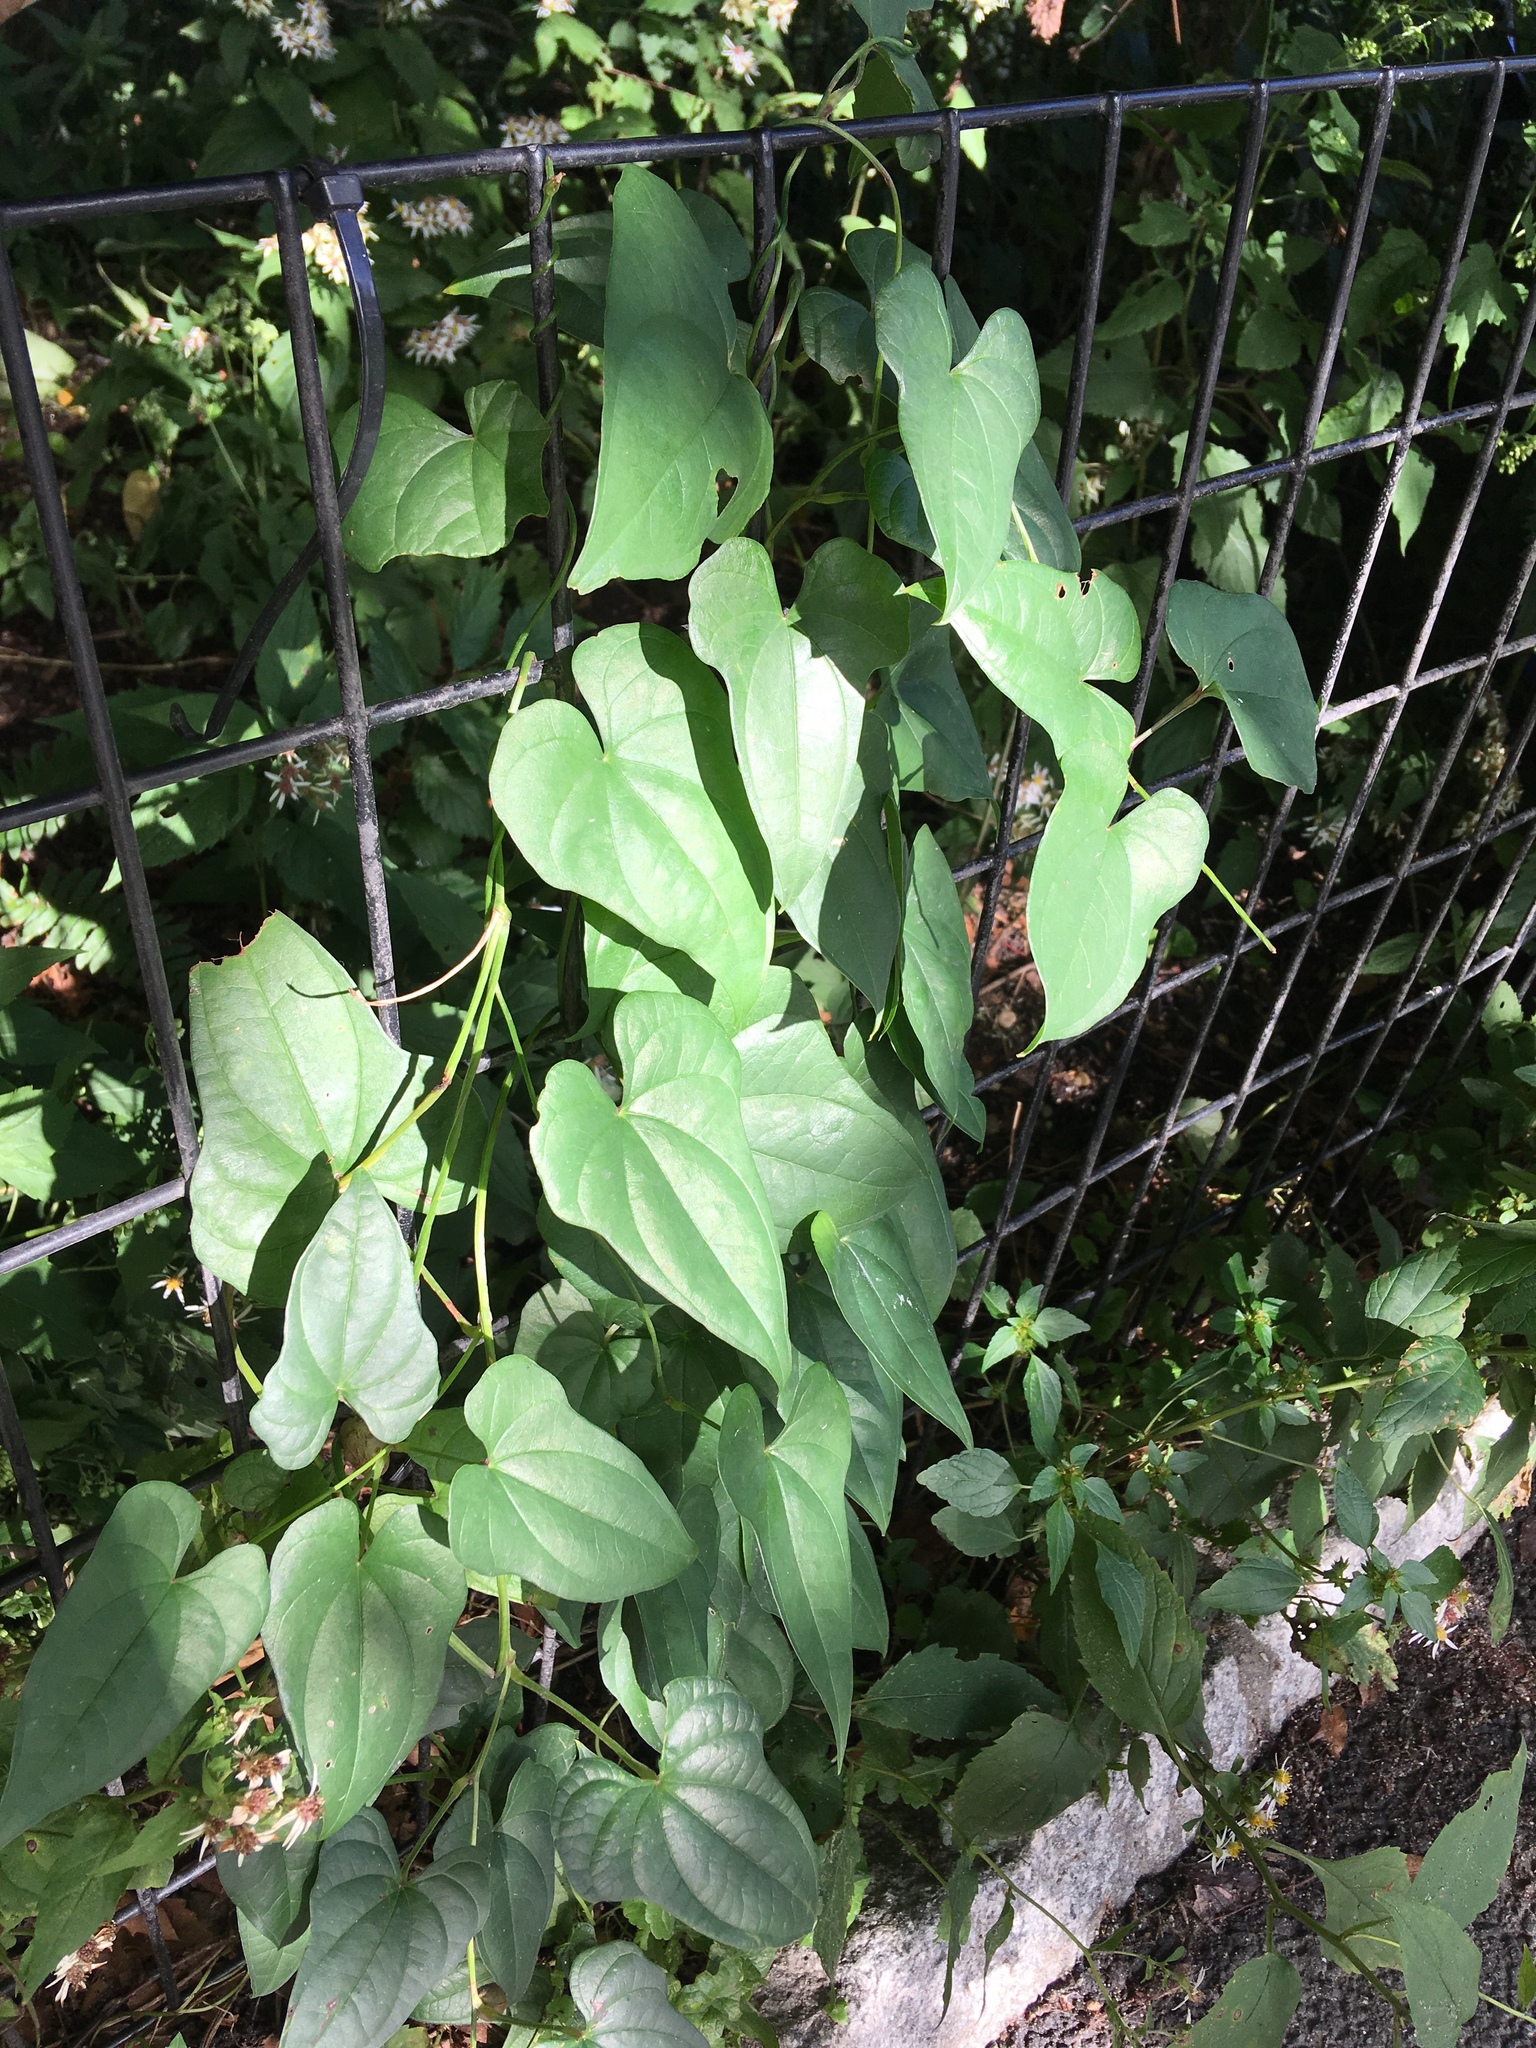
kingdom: Plantae
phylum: Tracheophyta
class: Liliopsida
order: Dioscoreales
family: Dioscoreaceae
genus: Dioscorea
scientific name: Dioscorea polystachya
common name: Chinese yam
